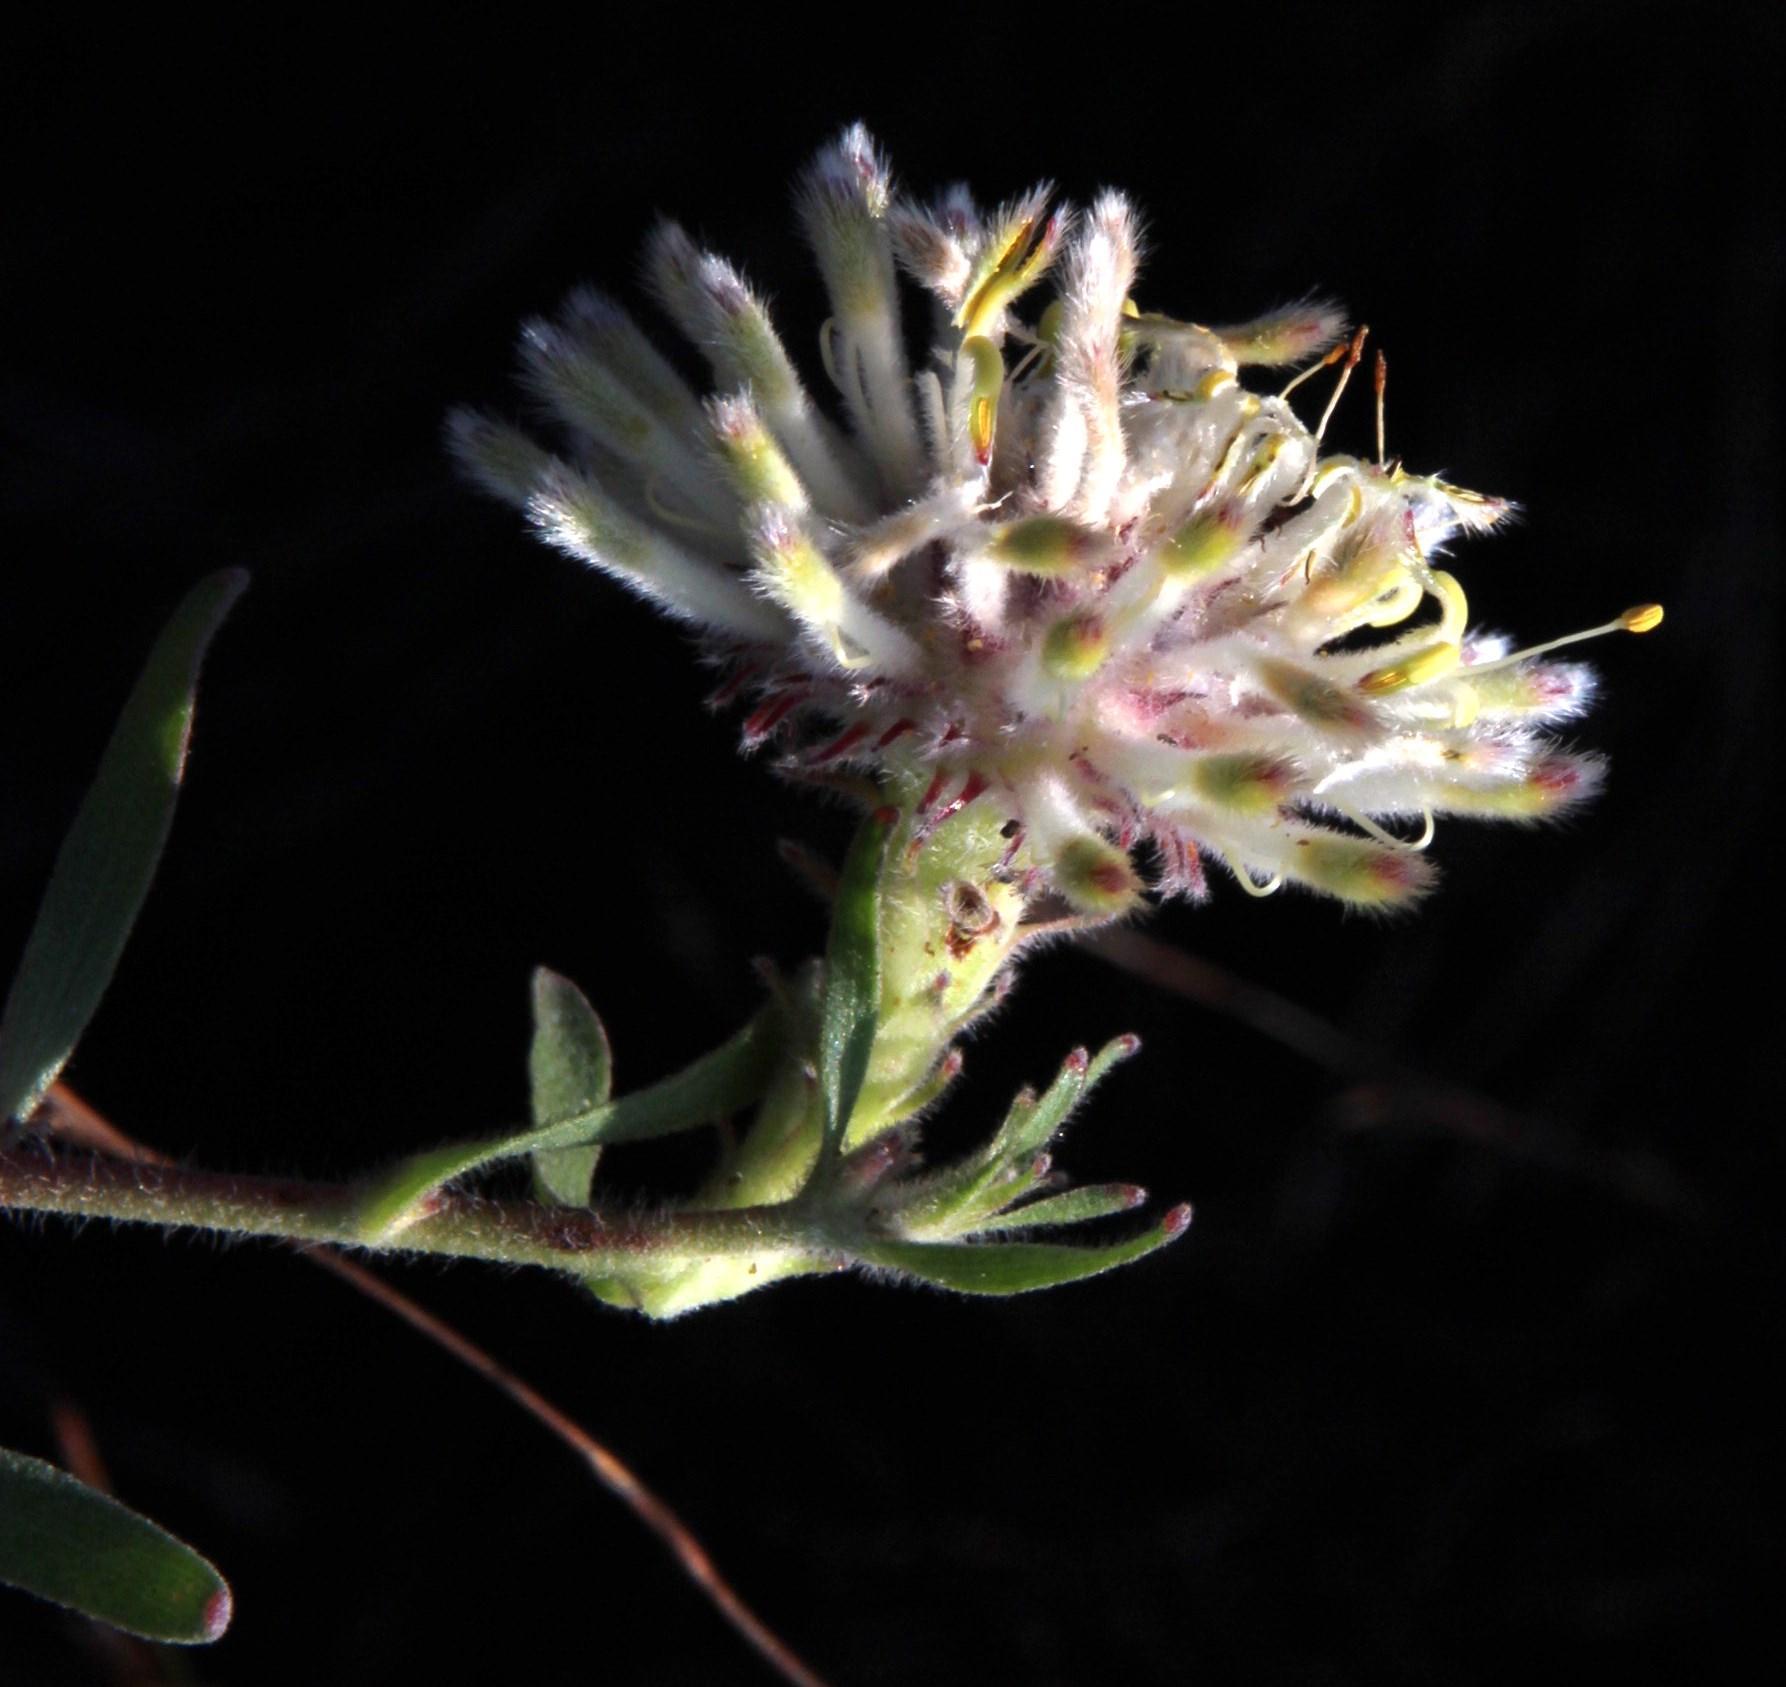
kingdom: Plantae
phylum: Tracheophyta
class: Magnoliopsida
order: Proteales
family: Proteaceae
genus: Leucospermum
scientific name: Leucospermum pedunculatum
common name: White-trailing pincushion
